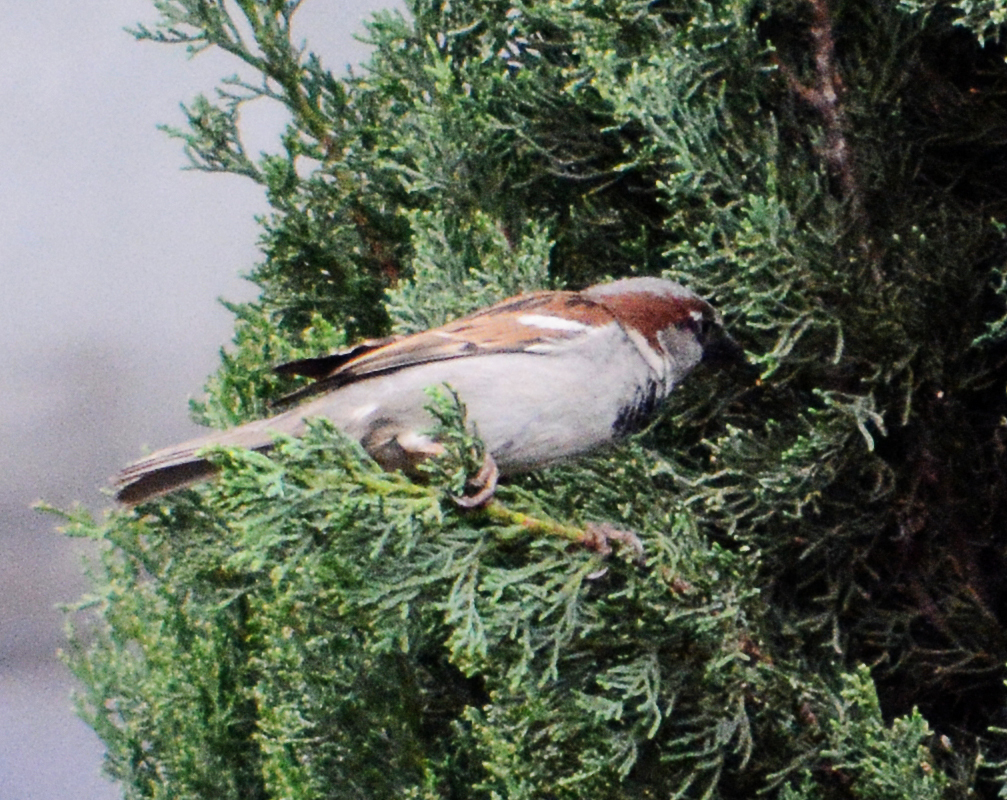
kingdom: Animalia
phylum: Chordata
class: Aves
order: Passeriformes
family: Passeridae
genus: Passer
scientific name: Passer domesticus
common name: House sparrow
